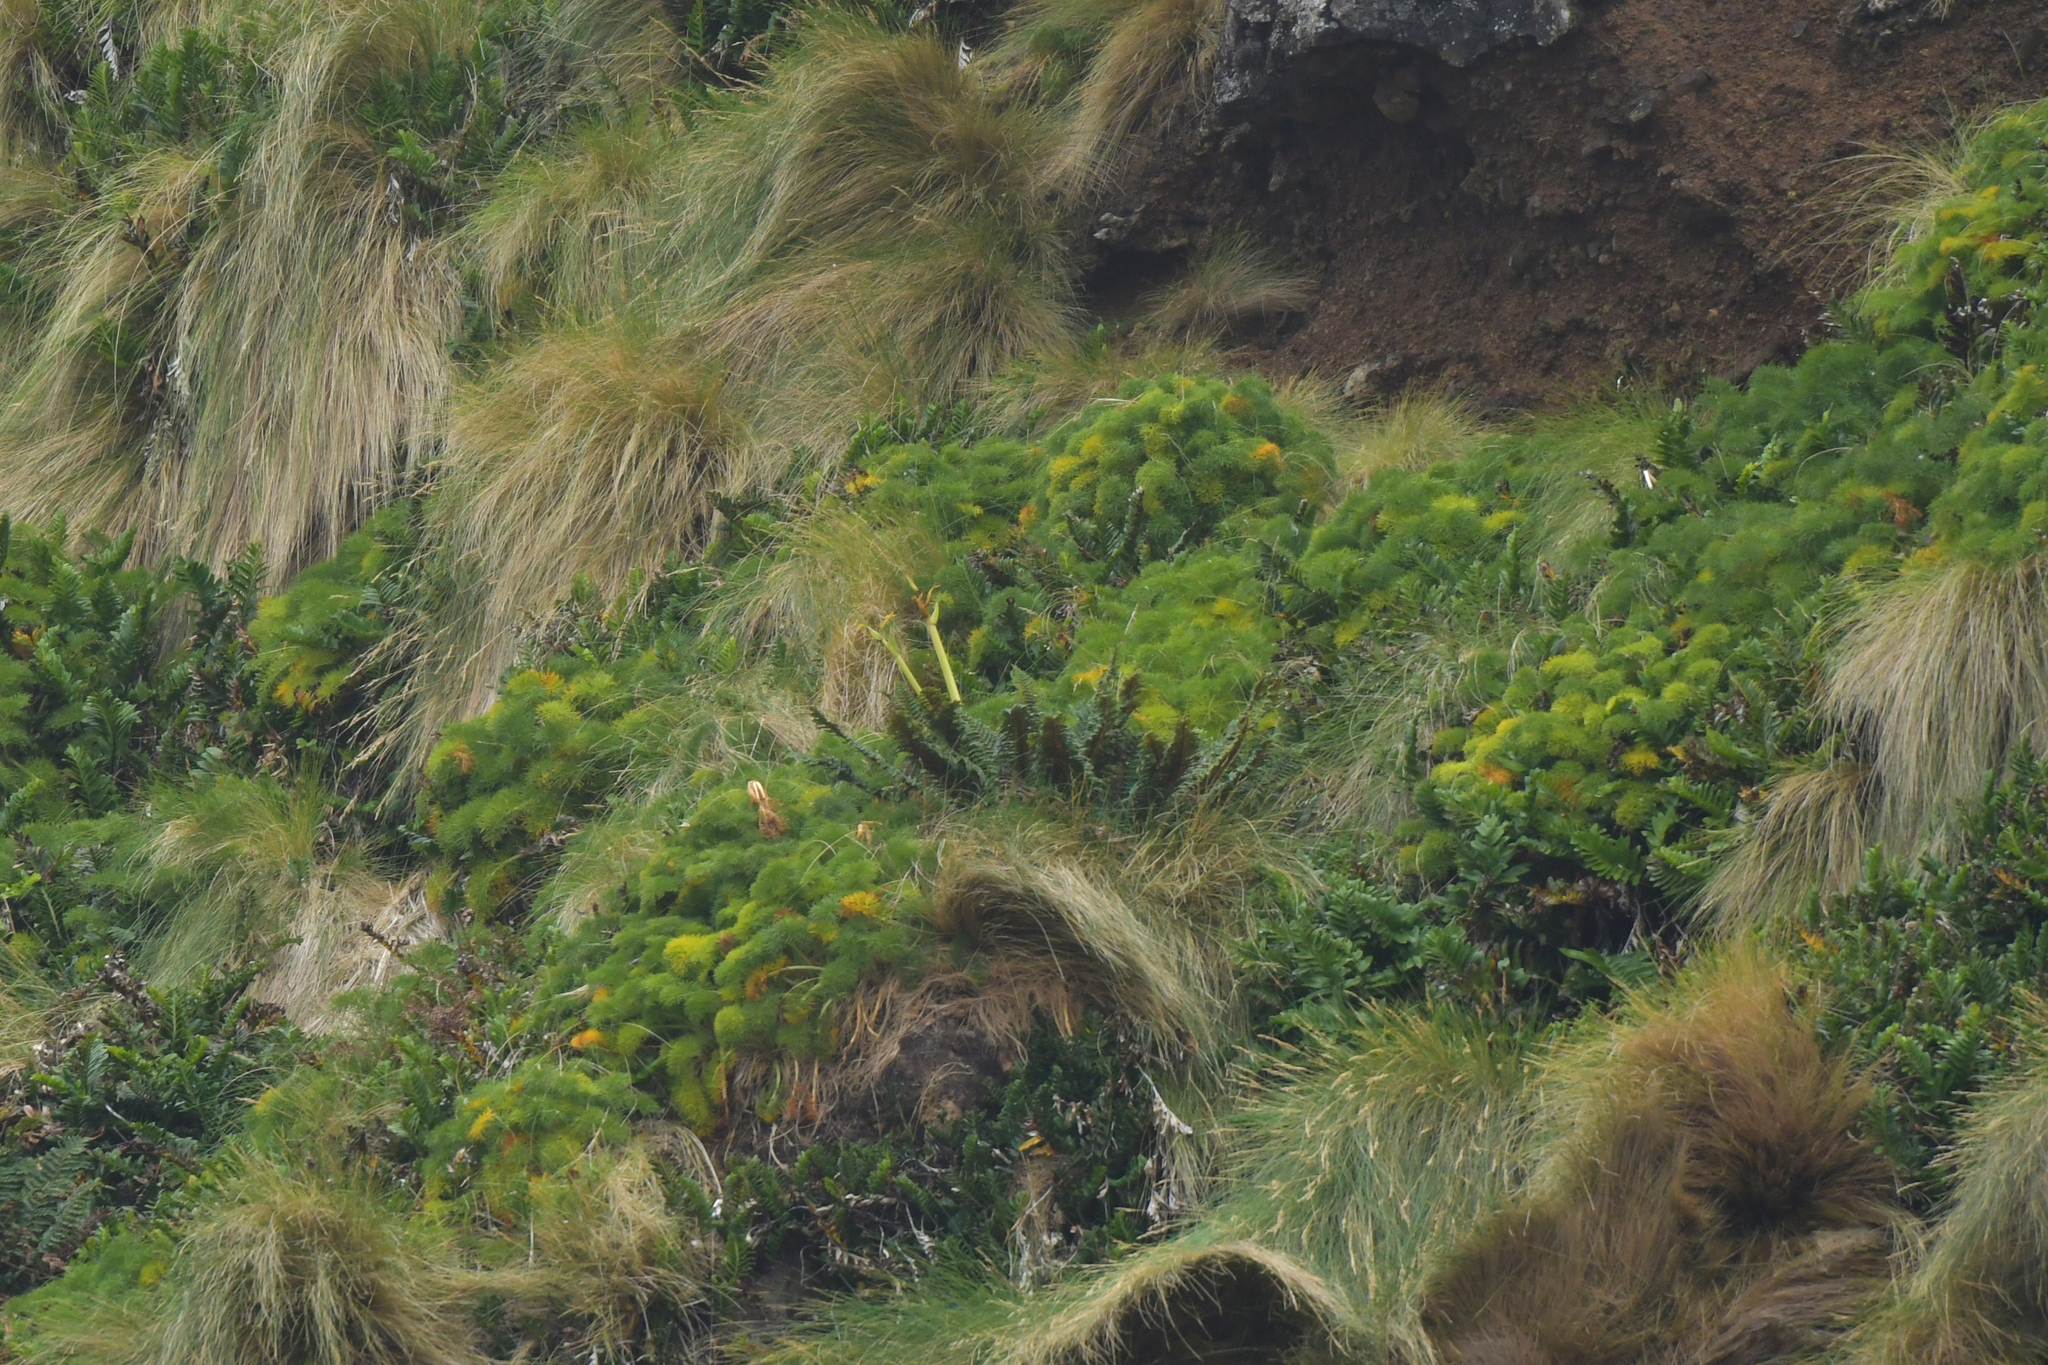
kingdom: Plantae
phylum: Tracheophyta
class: Magnoliopsida
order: Apiales
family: Apiaceae
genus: Anisotome
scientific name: Anisotome antipoda
